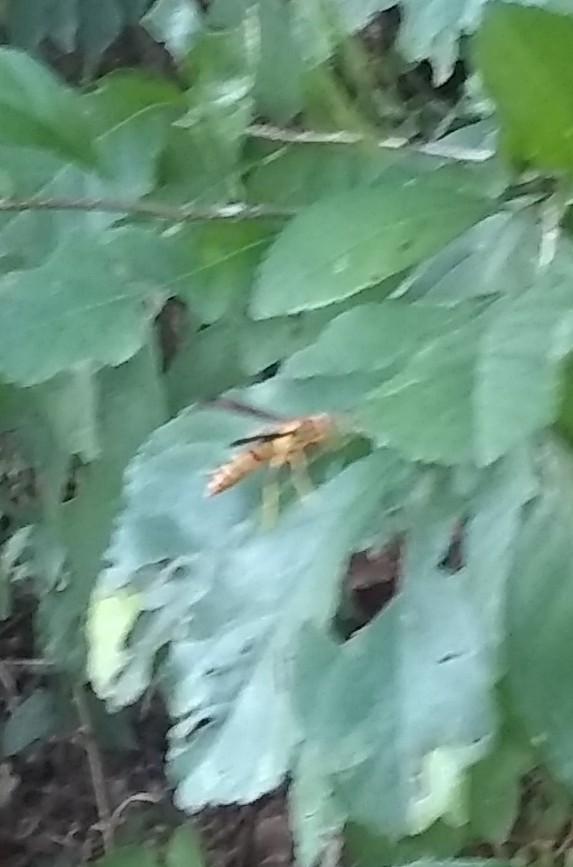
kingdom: Animalia
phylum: Arthropoda
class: Insecta
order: Hymenoptera
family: Pompilidae
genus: Aphanilopterus
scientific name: Aphanilopterus
